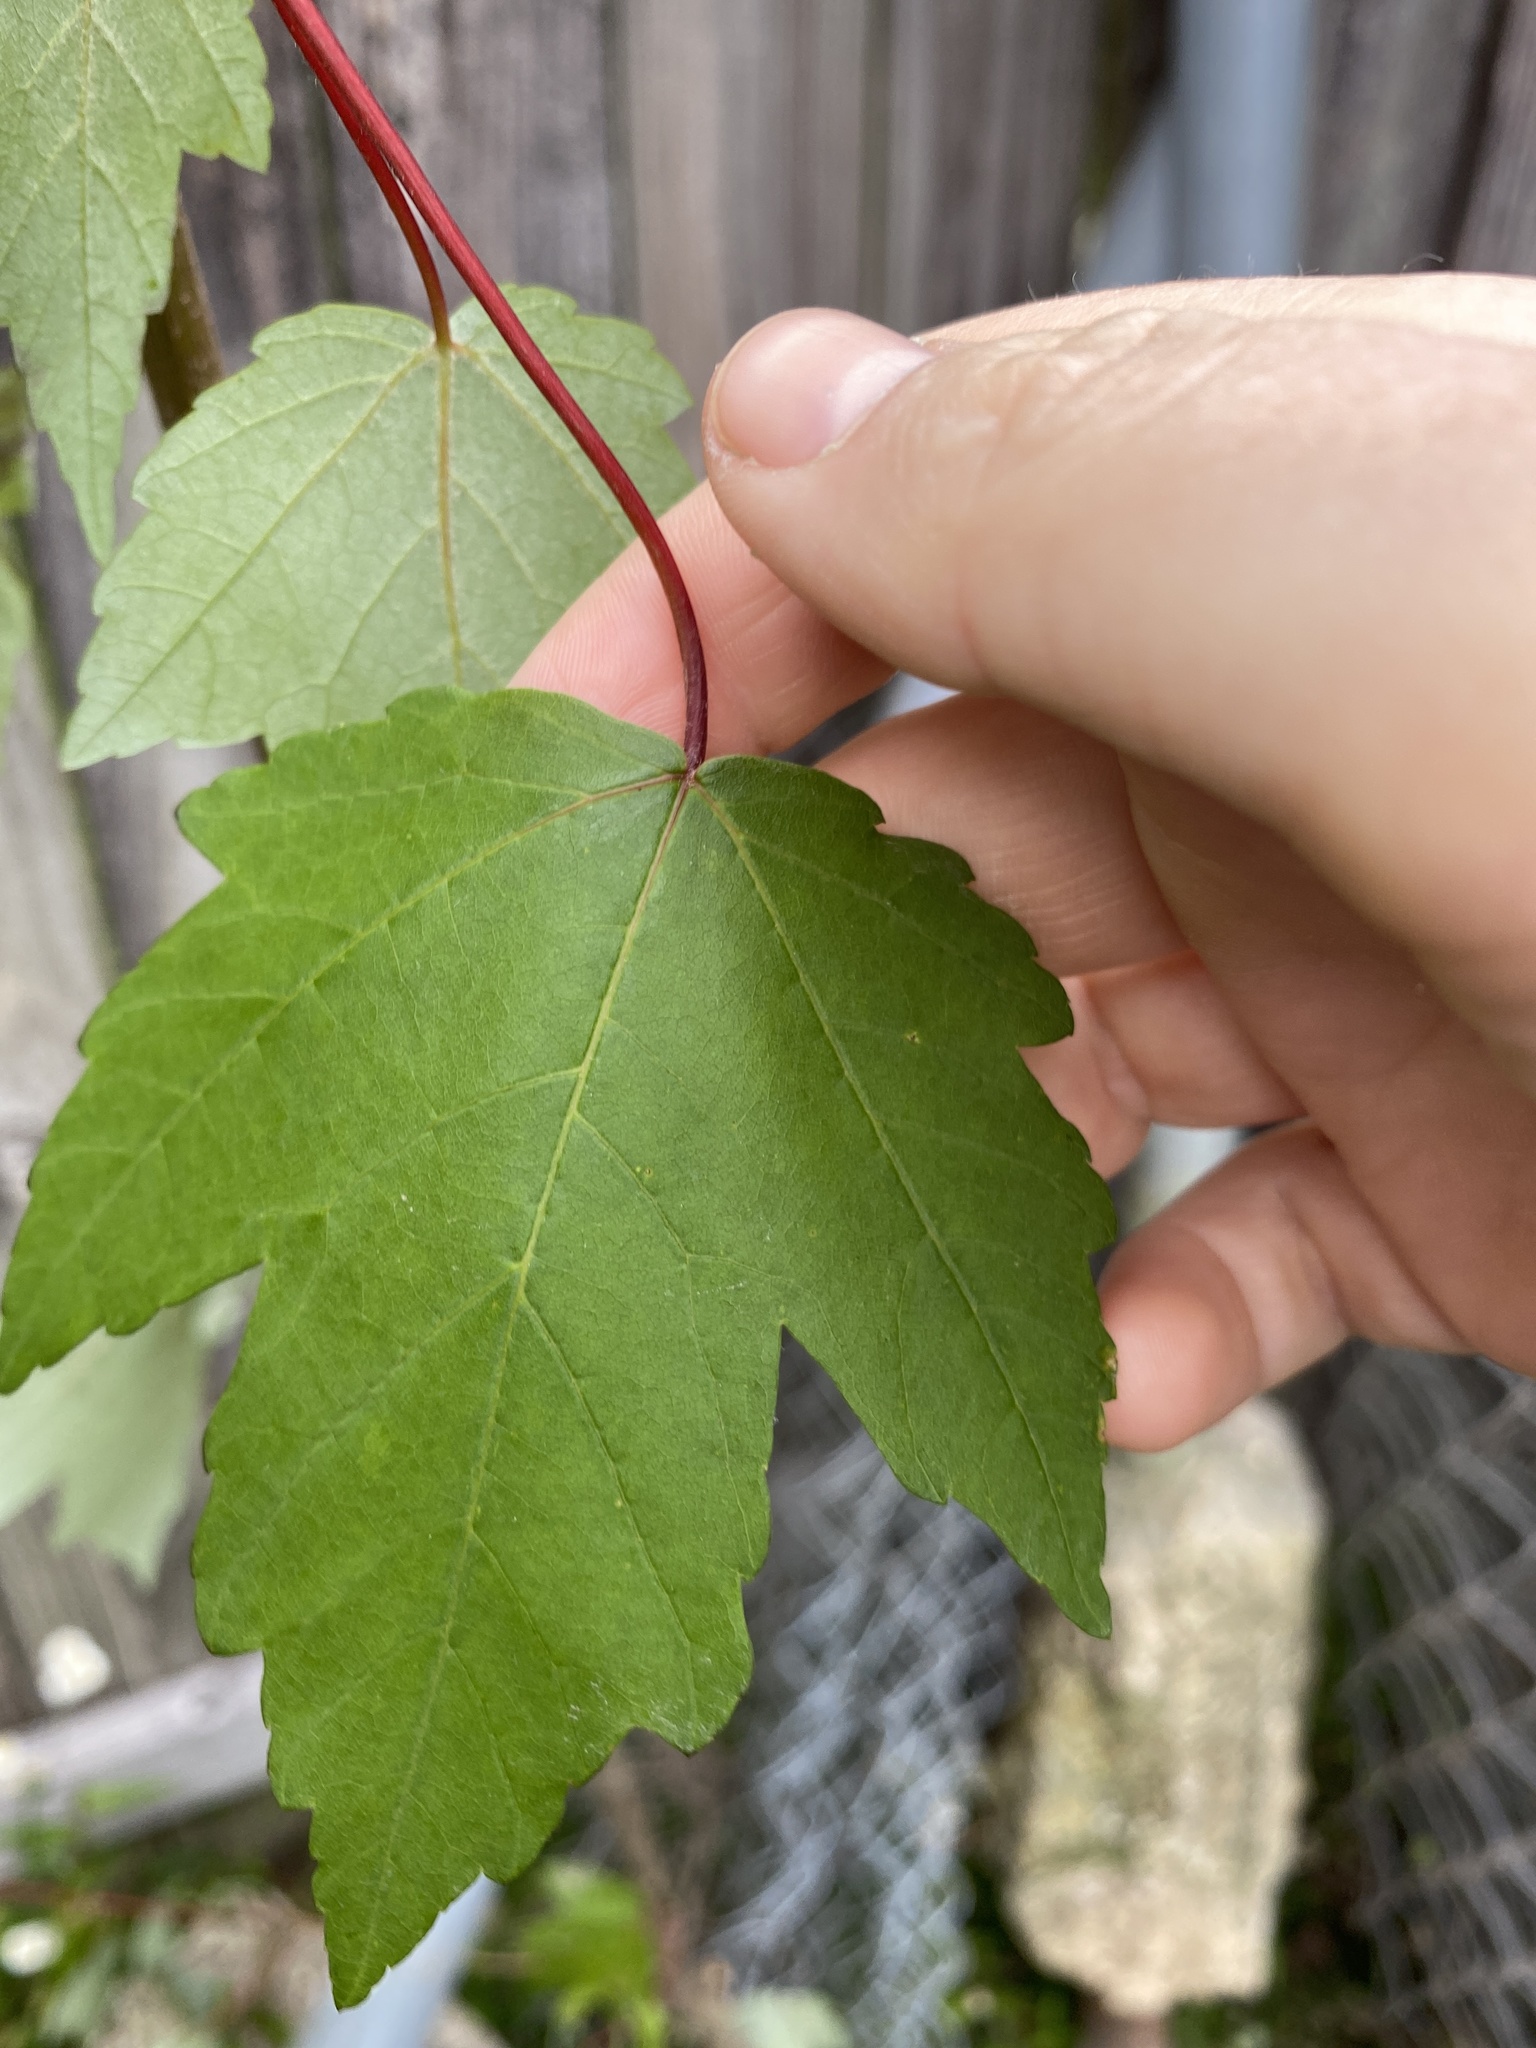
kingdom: Plantae
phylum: Tracheophyta
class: Magnoliopsida
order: Sapindales
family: Sapindaceae
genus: Acer
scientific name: Acer rubrum
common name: Red maple
